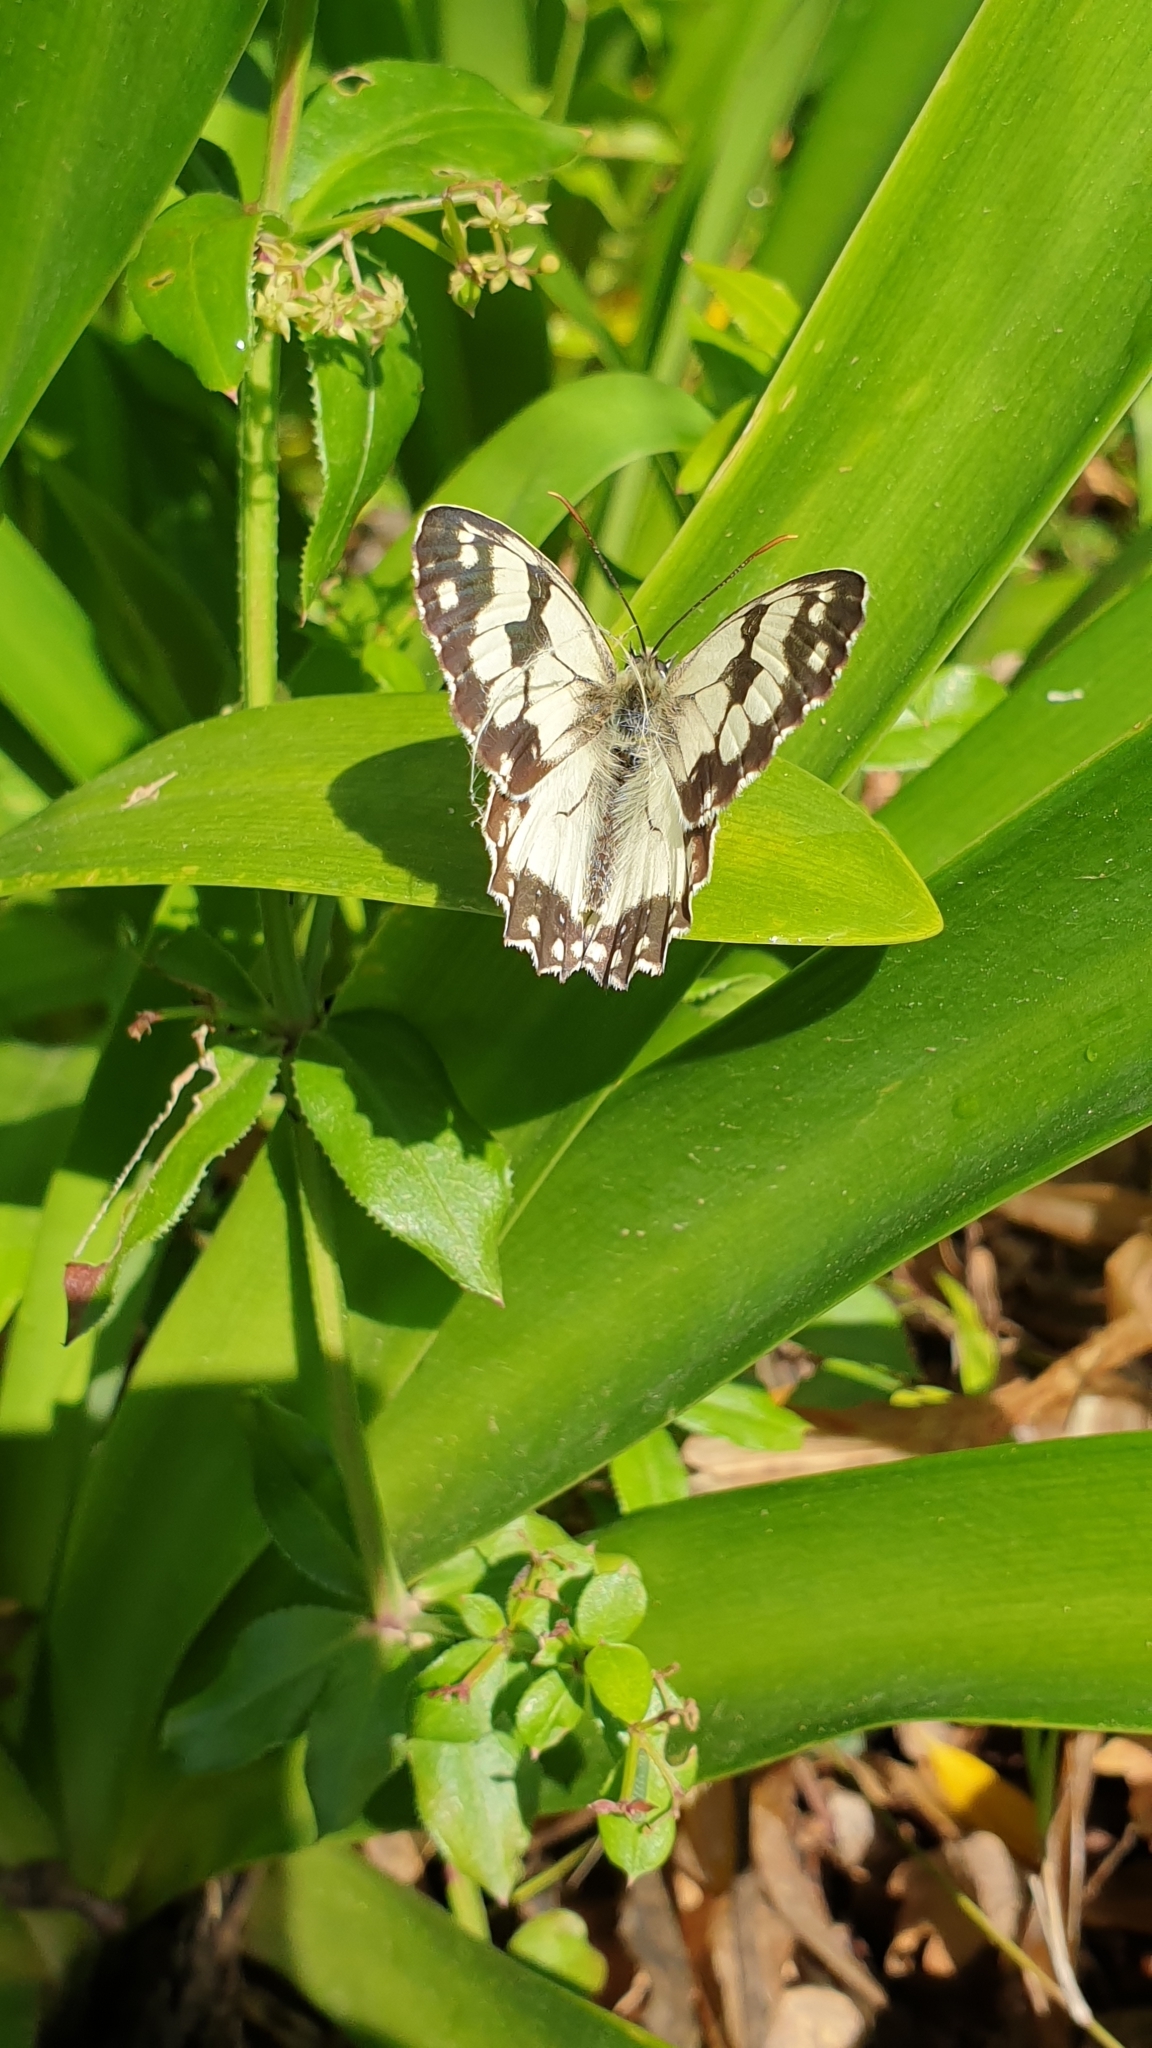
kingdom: Animalia
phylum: Arthropoda
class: Insecta
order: Lepidoptera
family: Nymphalidae
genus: Melanargia
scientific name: Melanargia lachesis
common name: Iberian marbled white
